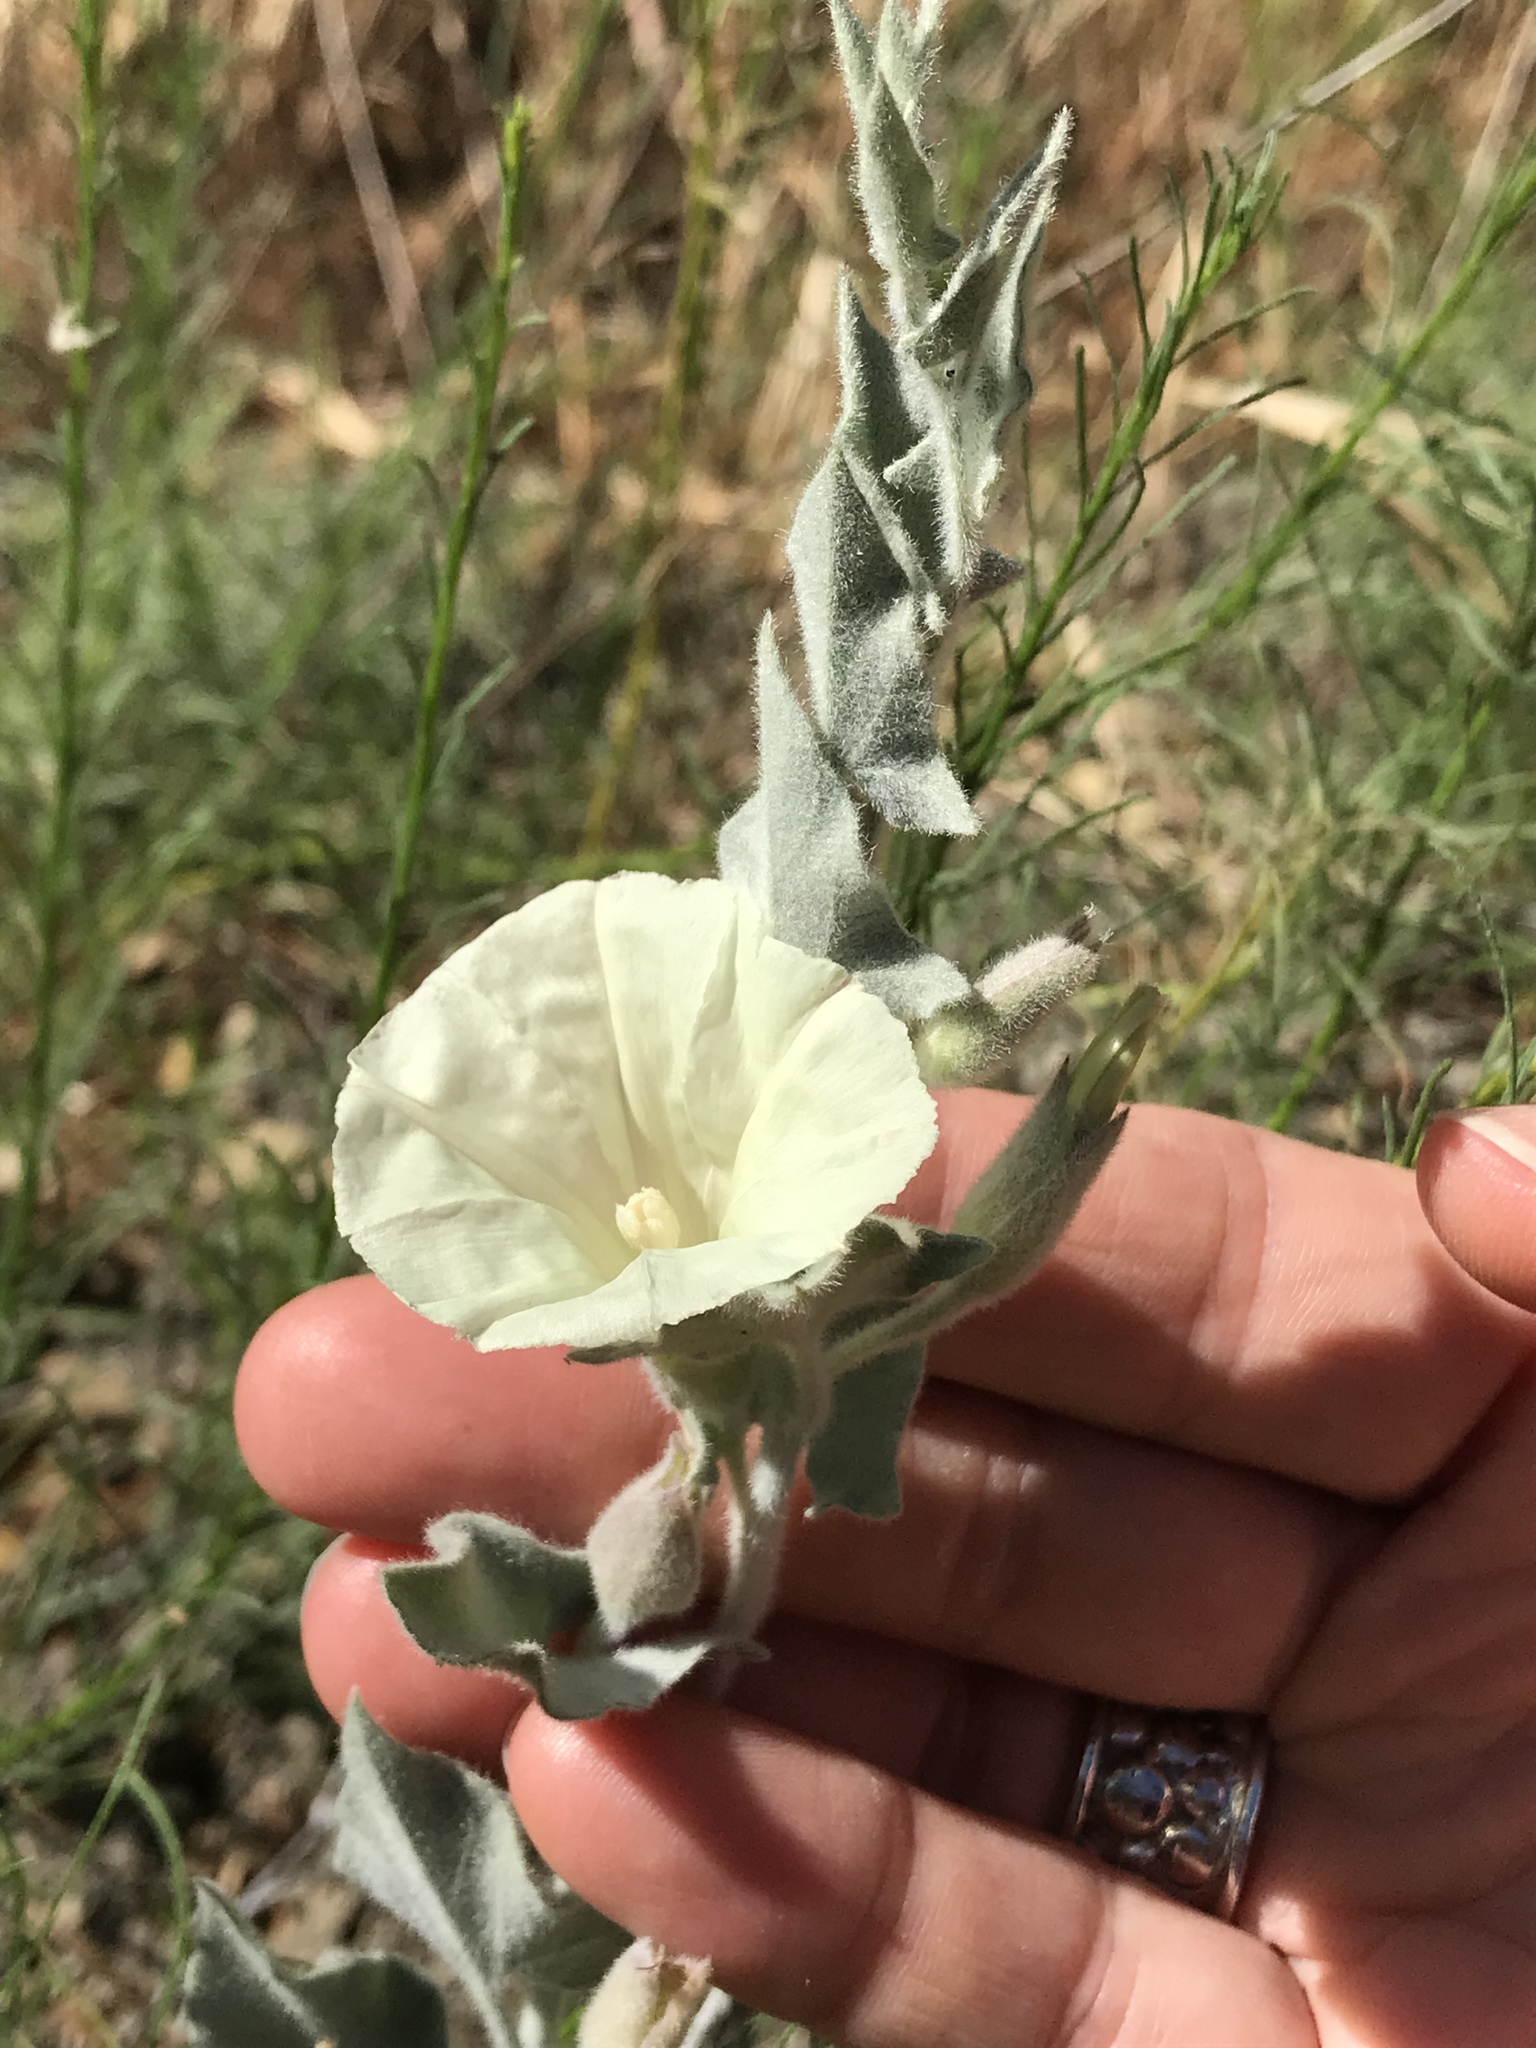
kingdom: Plantae
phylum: Tracheophyta
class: Magnoliopsida
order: Solanales
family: Convolvulaceae
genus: Calystegia
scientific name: Calystegia malacophylla
